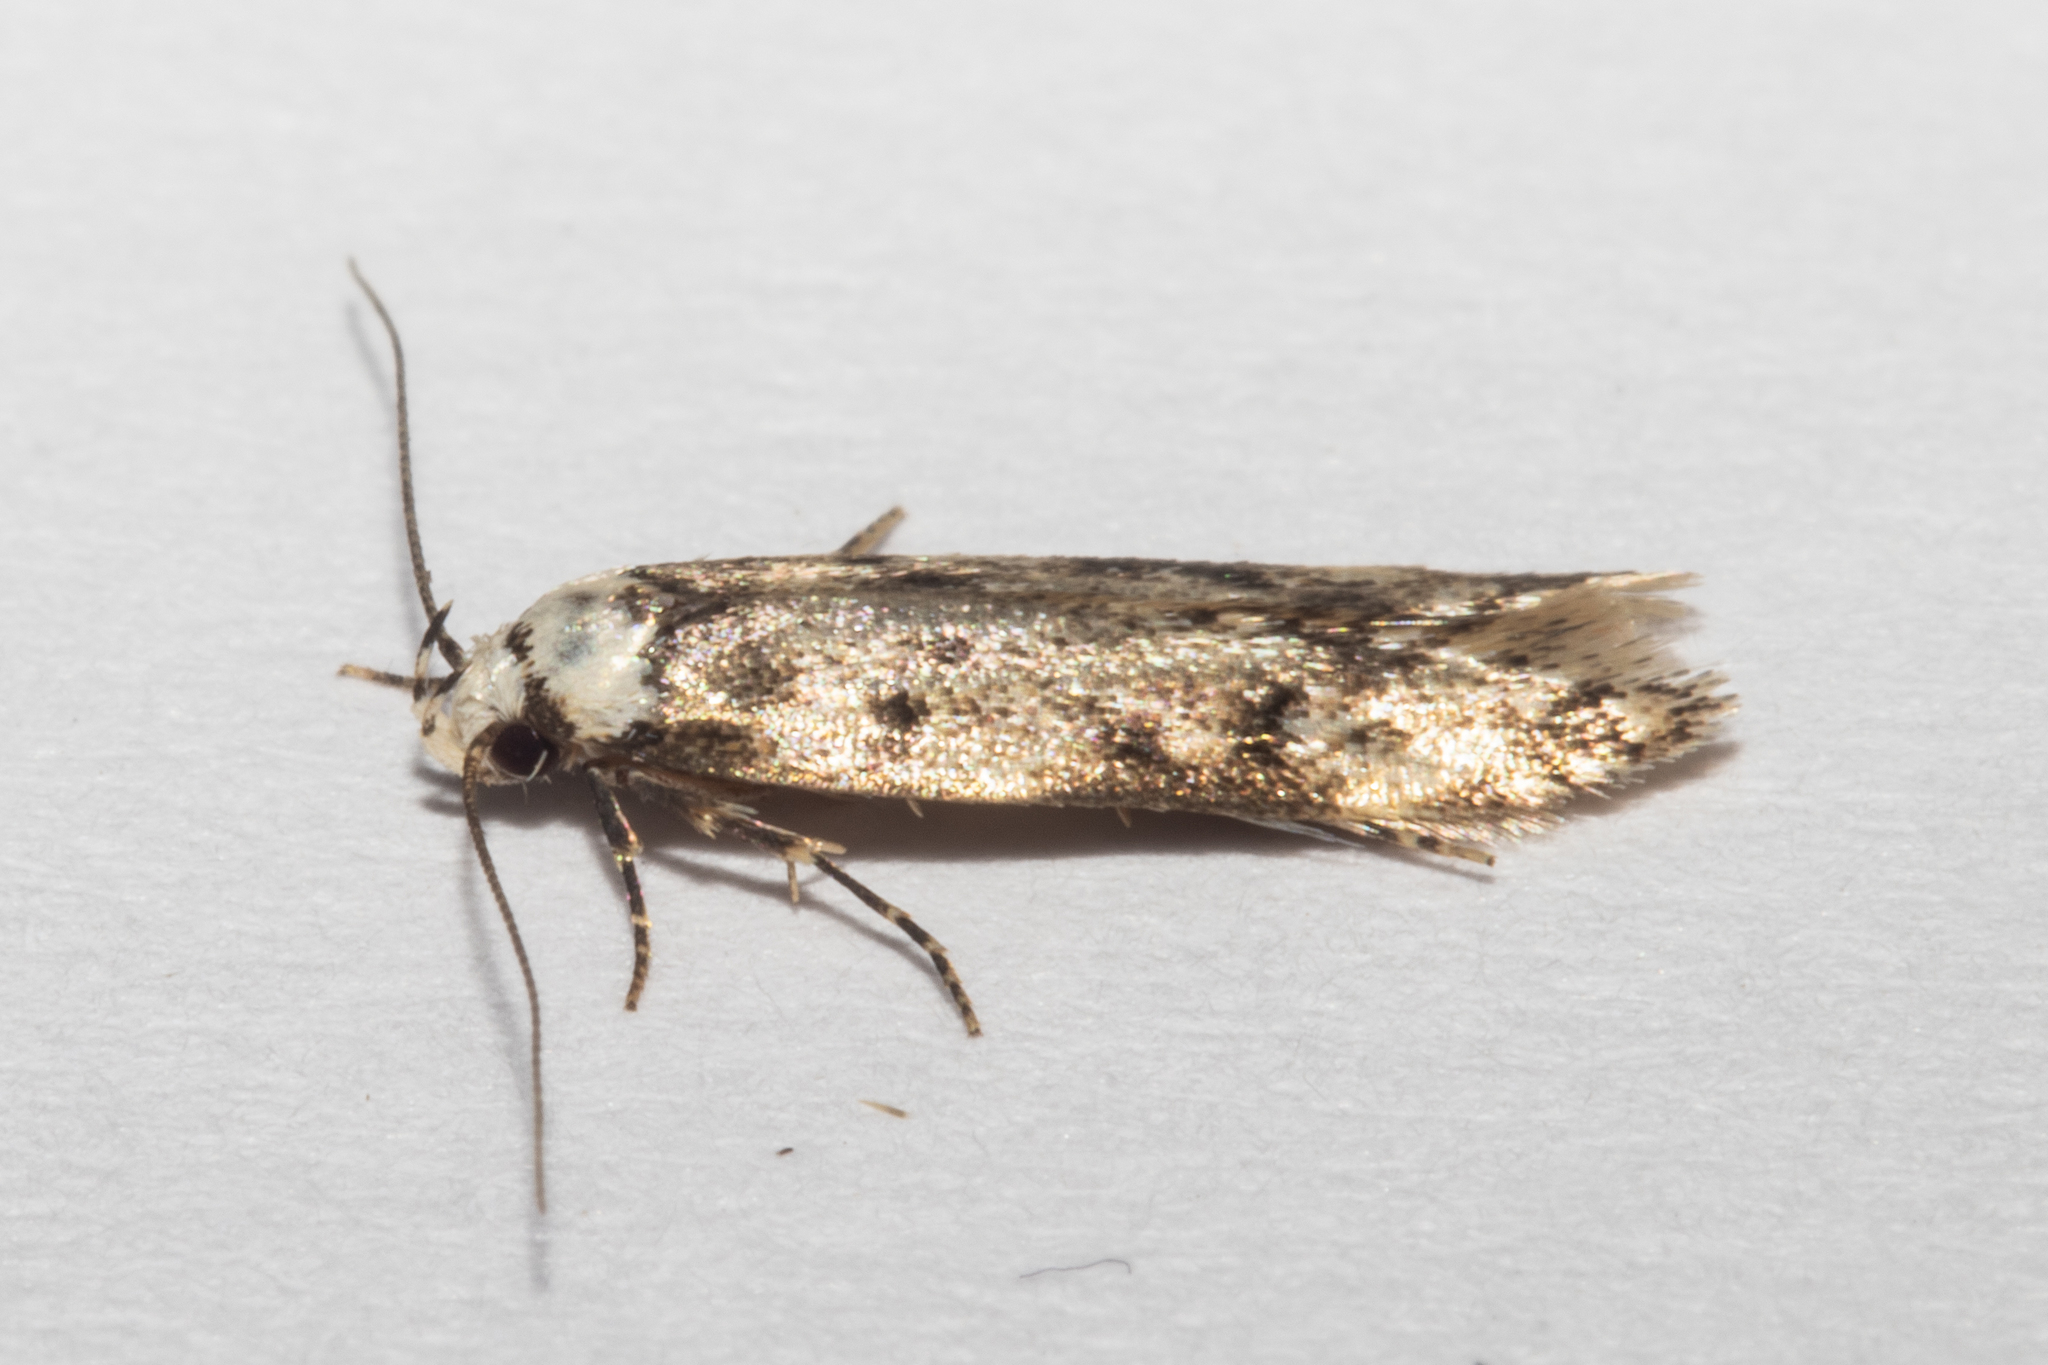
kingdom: Animalia
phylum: Arthropoda
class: Insecta
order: Lepidoptera
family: Oecophoridae
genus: Endrosis
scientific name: Endrosis sarcitrella
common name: White-shouldered house moth
